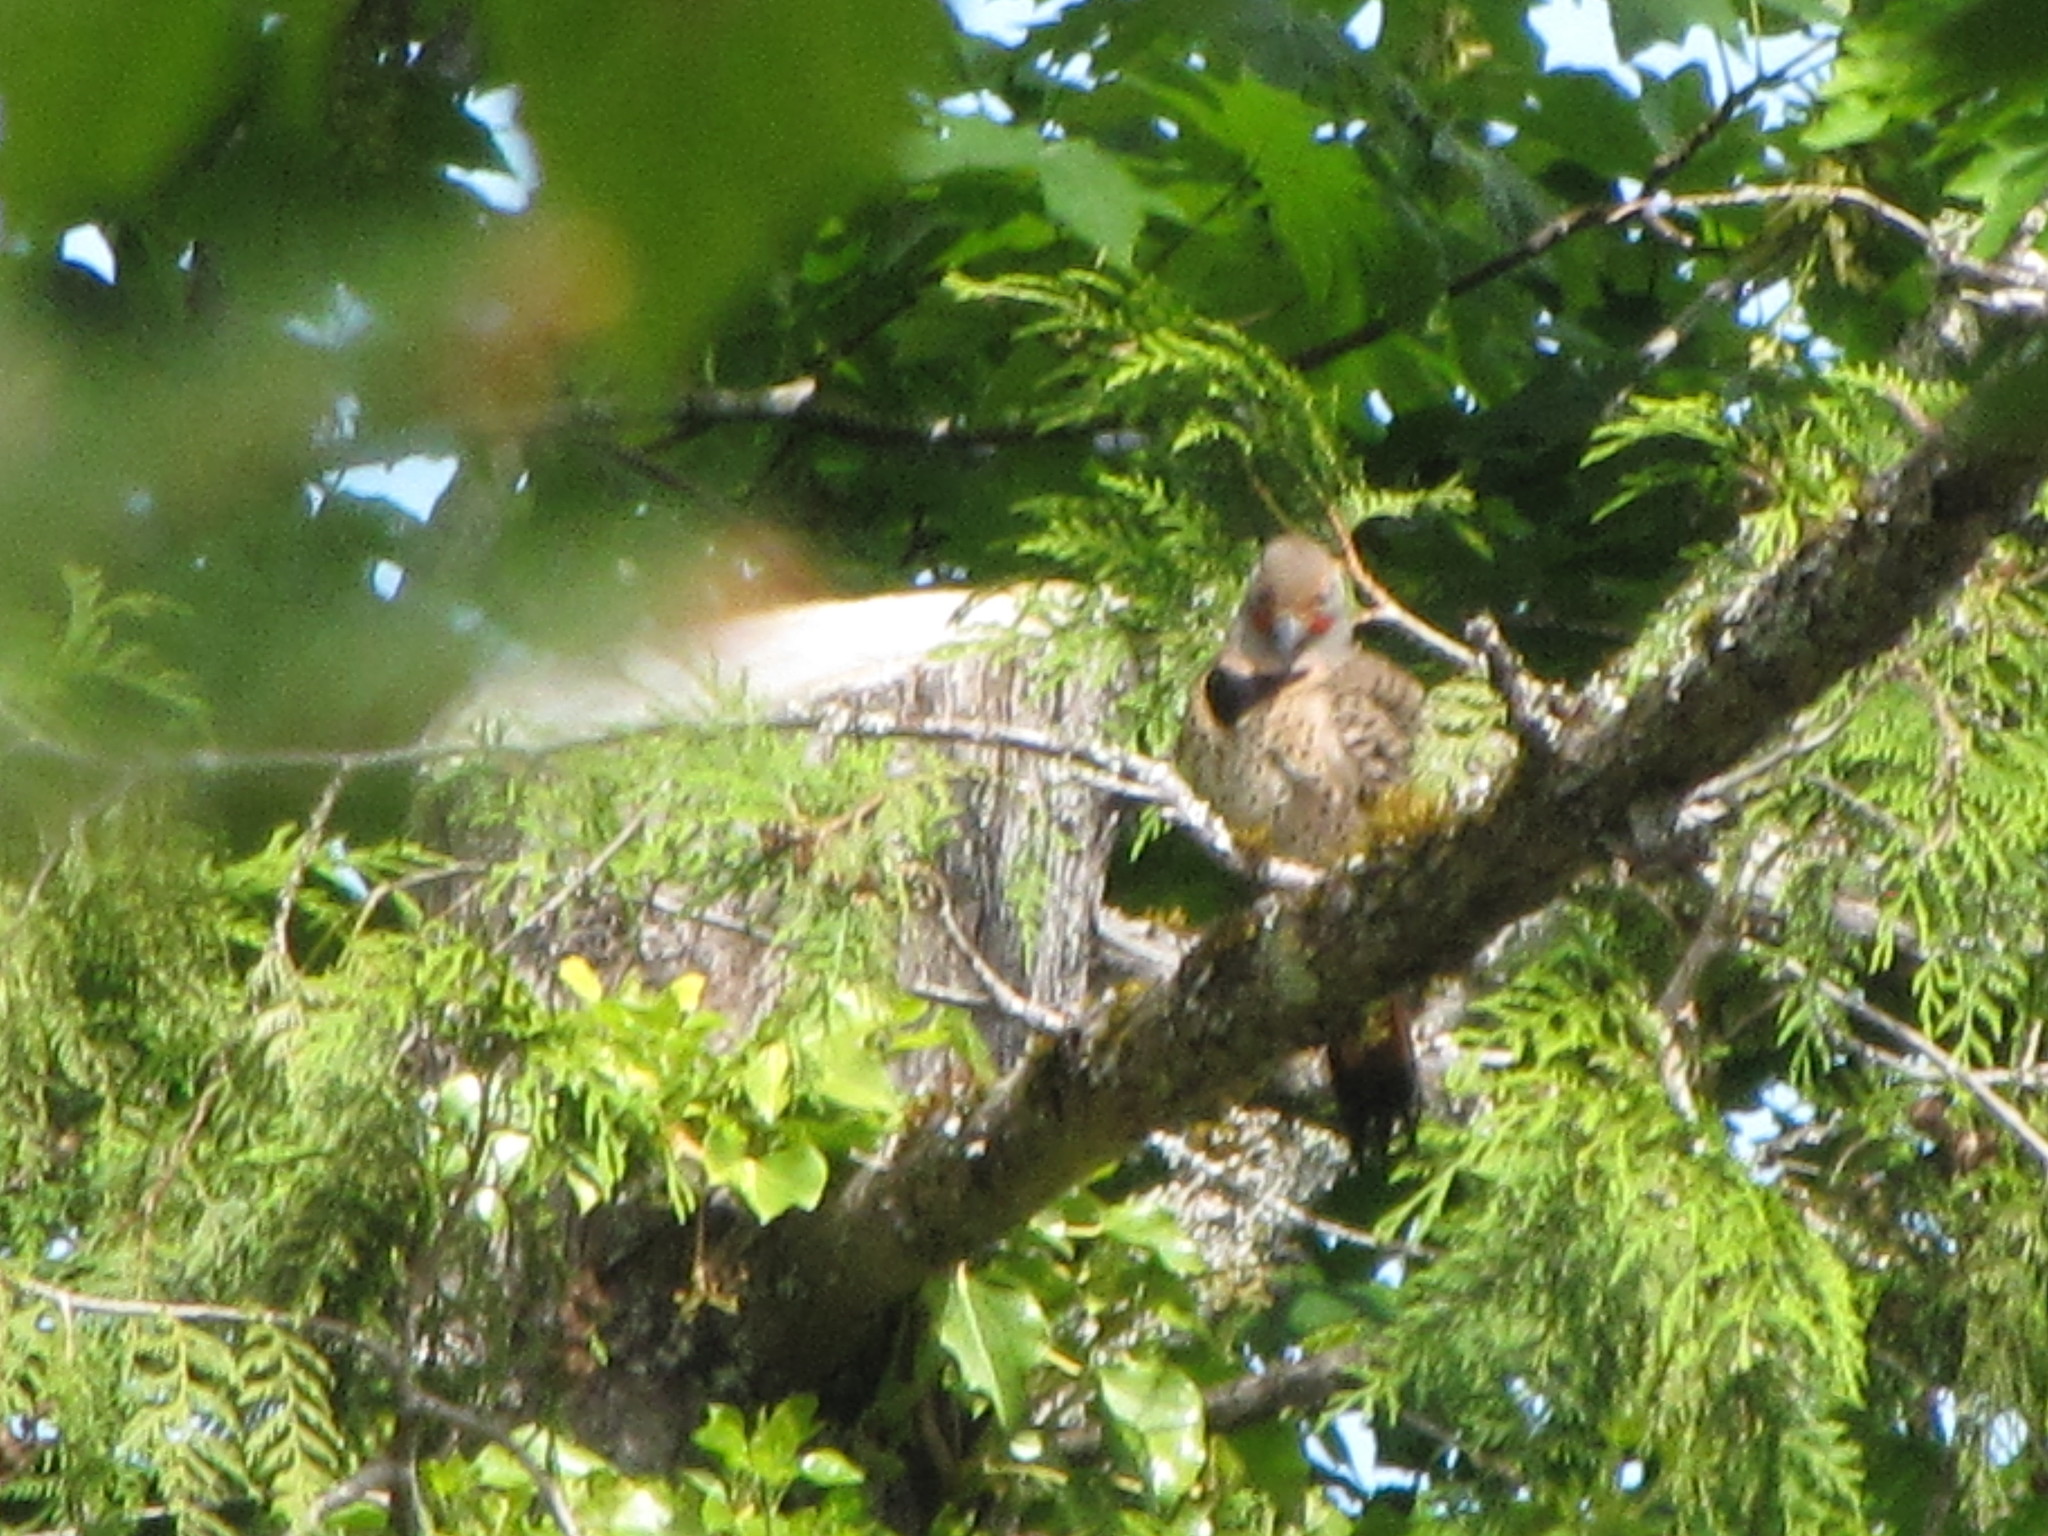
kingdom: Animalia
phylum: Chordata
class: Aves
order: Piciformes
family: Picidae
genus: Colaptes
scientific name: Colaptes auratus
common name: Northern flicker
